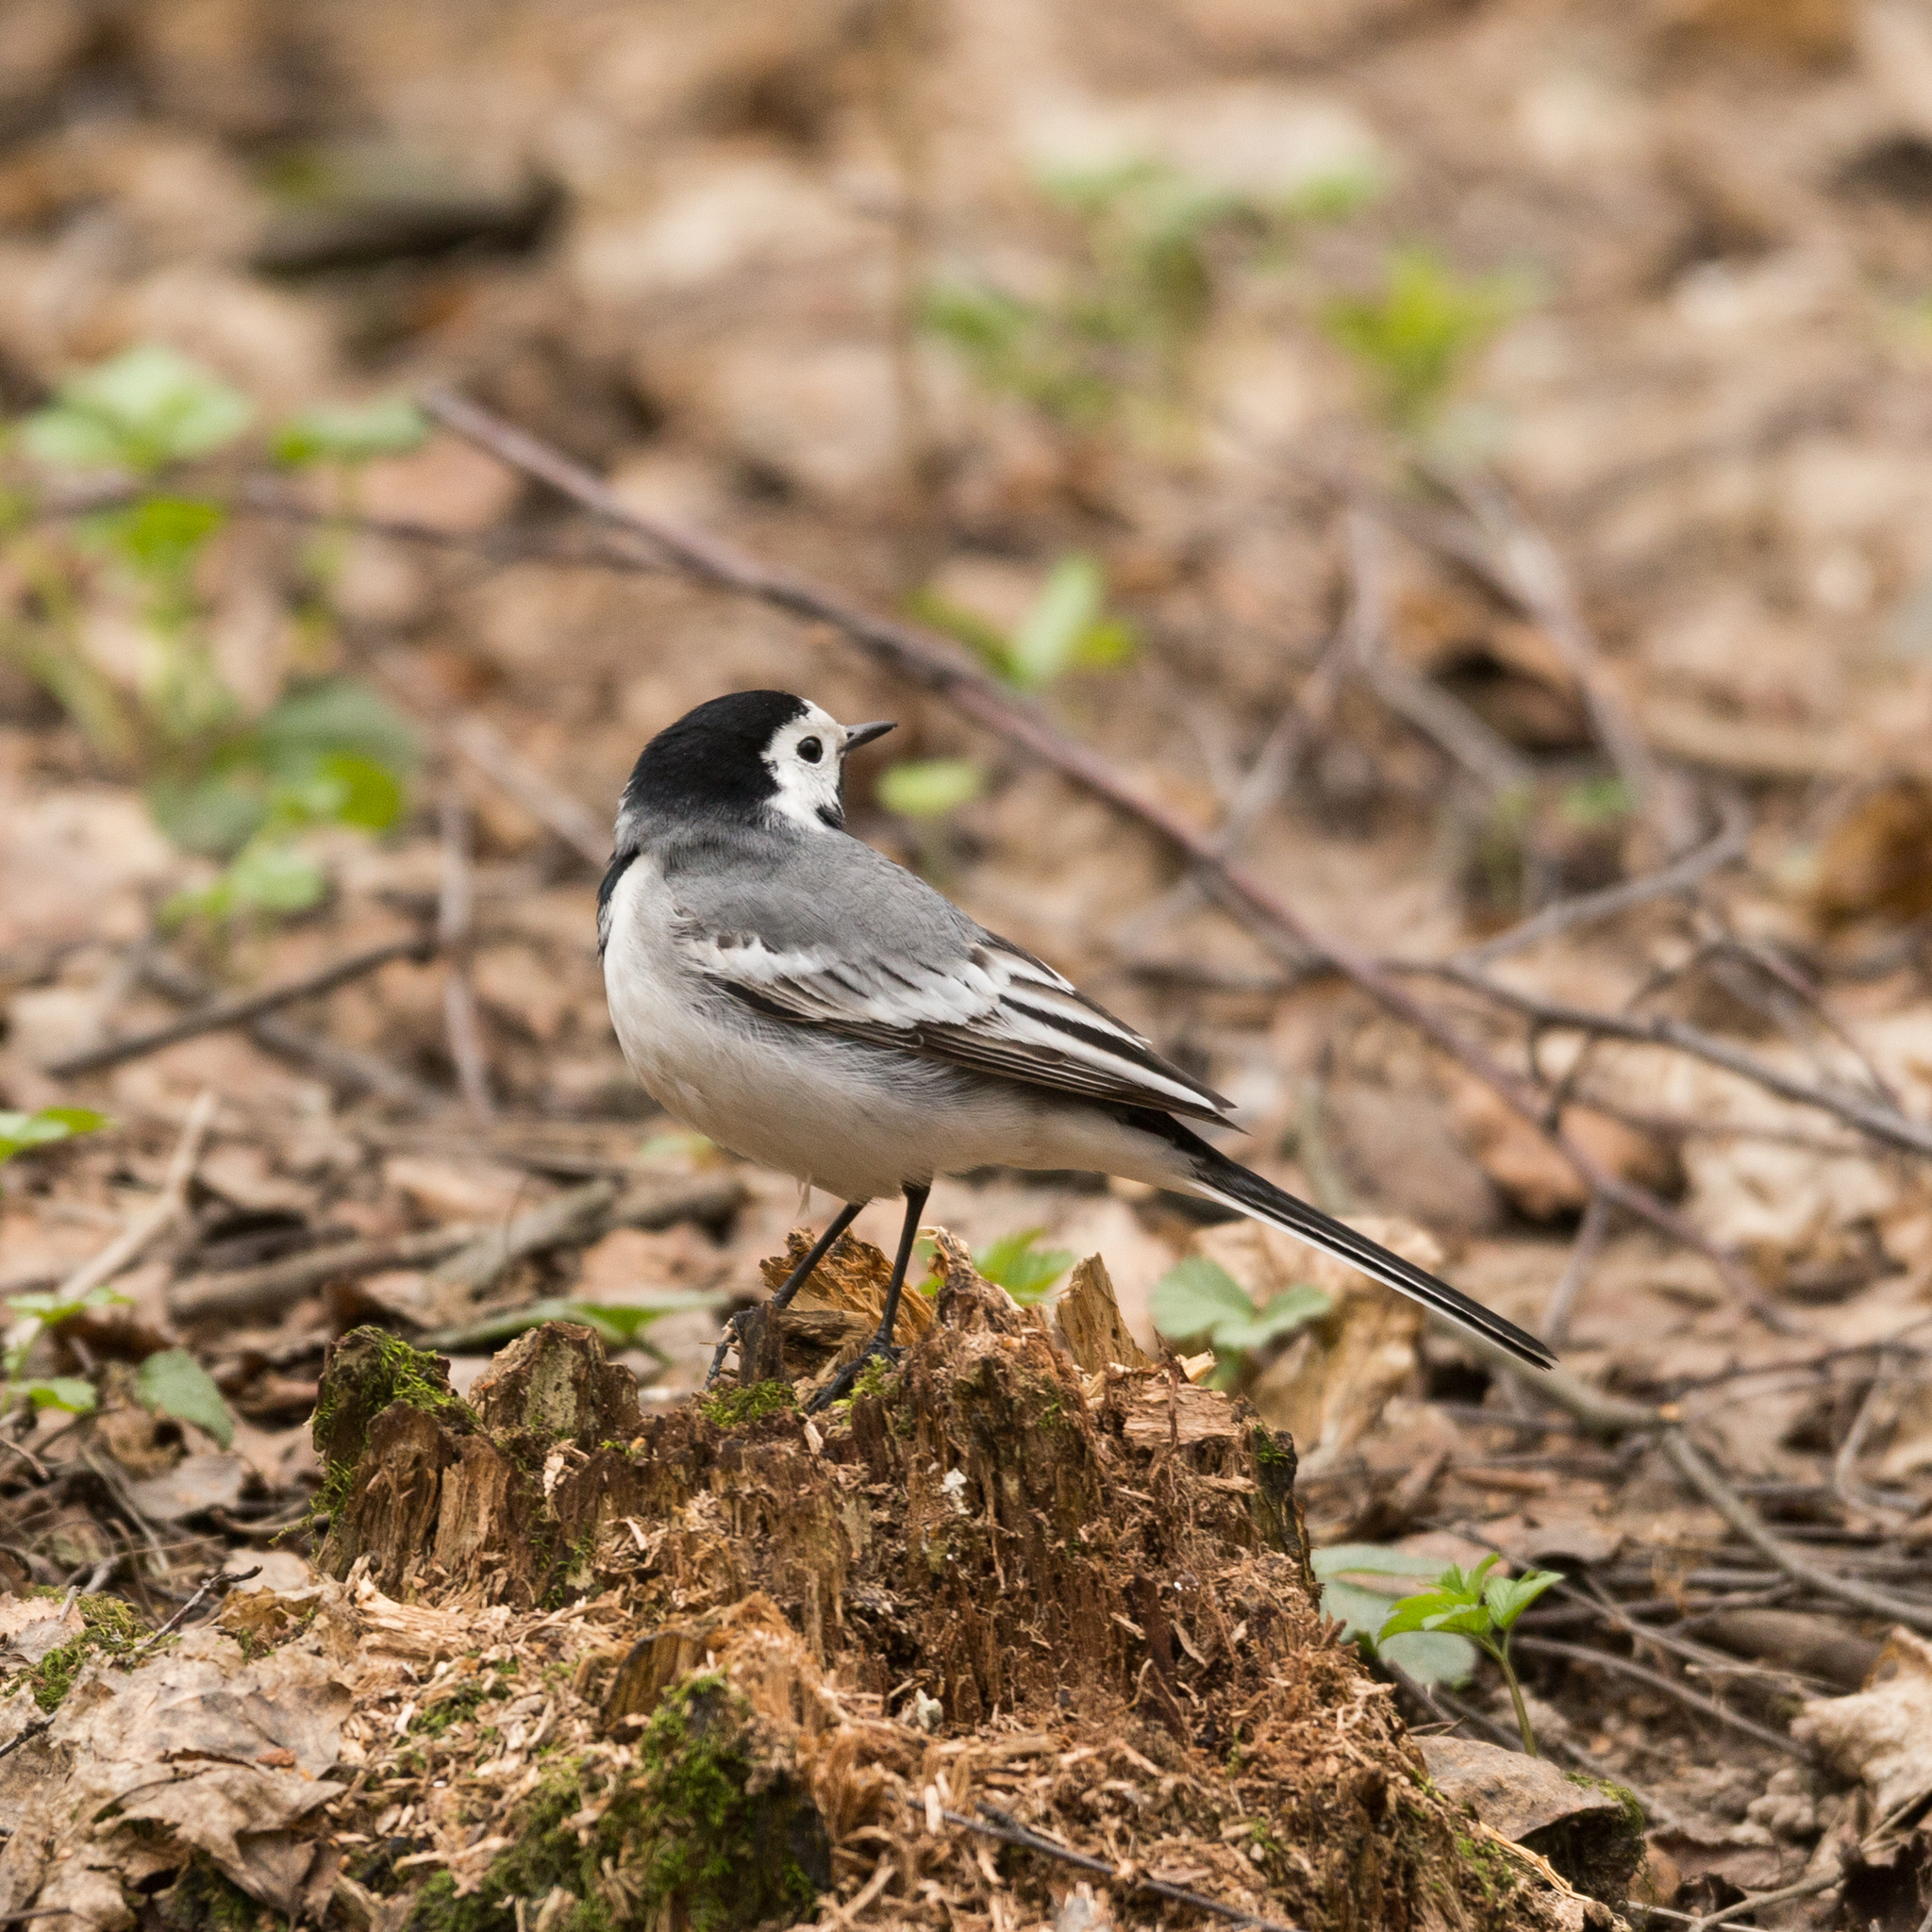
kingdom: Animalia
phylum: Chordata
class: Aves
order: Passeriformes
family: Motacillidae
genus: Motacilla
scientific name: Motacilla alba
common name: White wagtail
